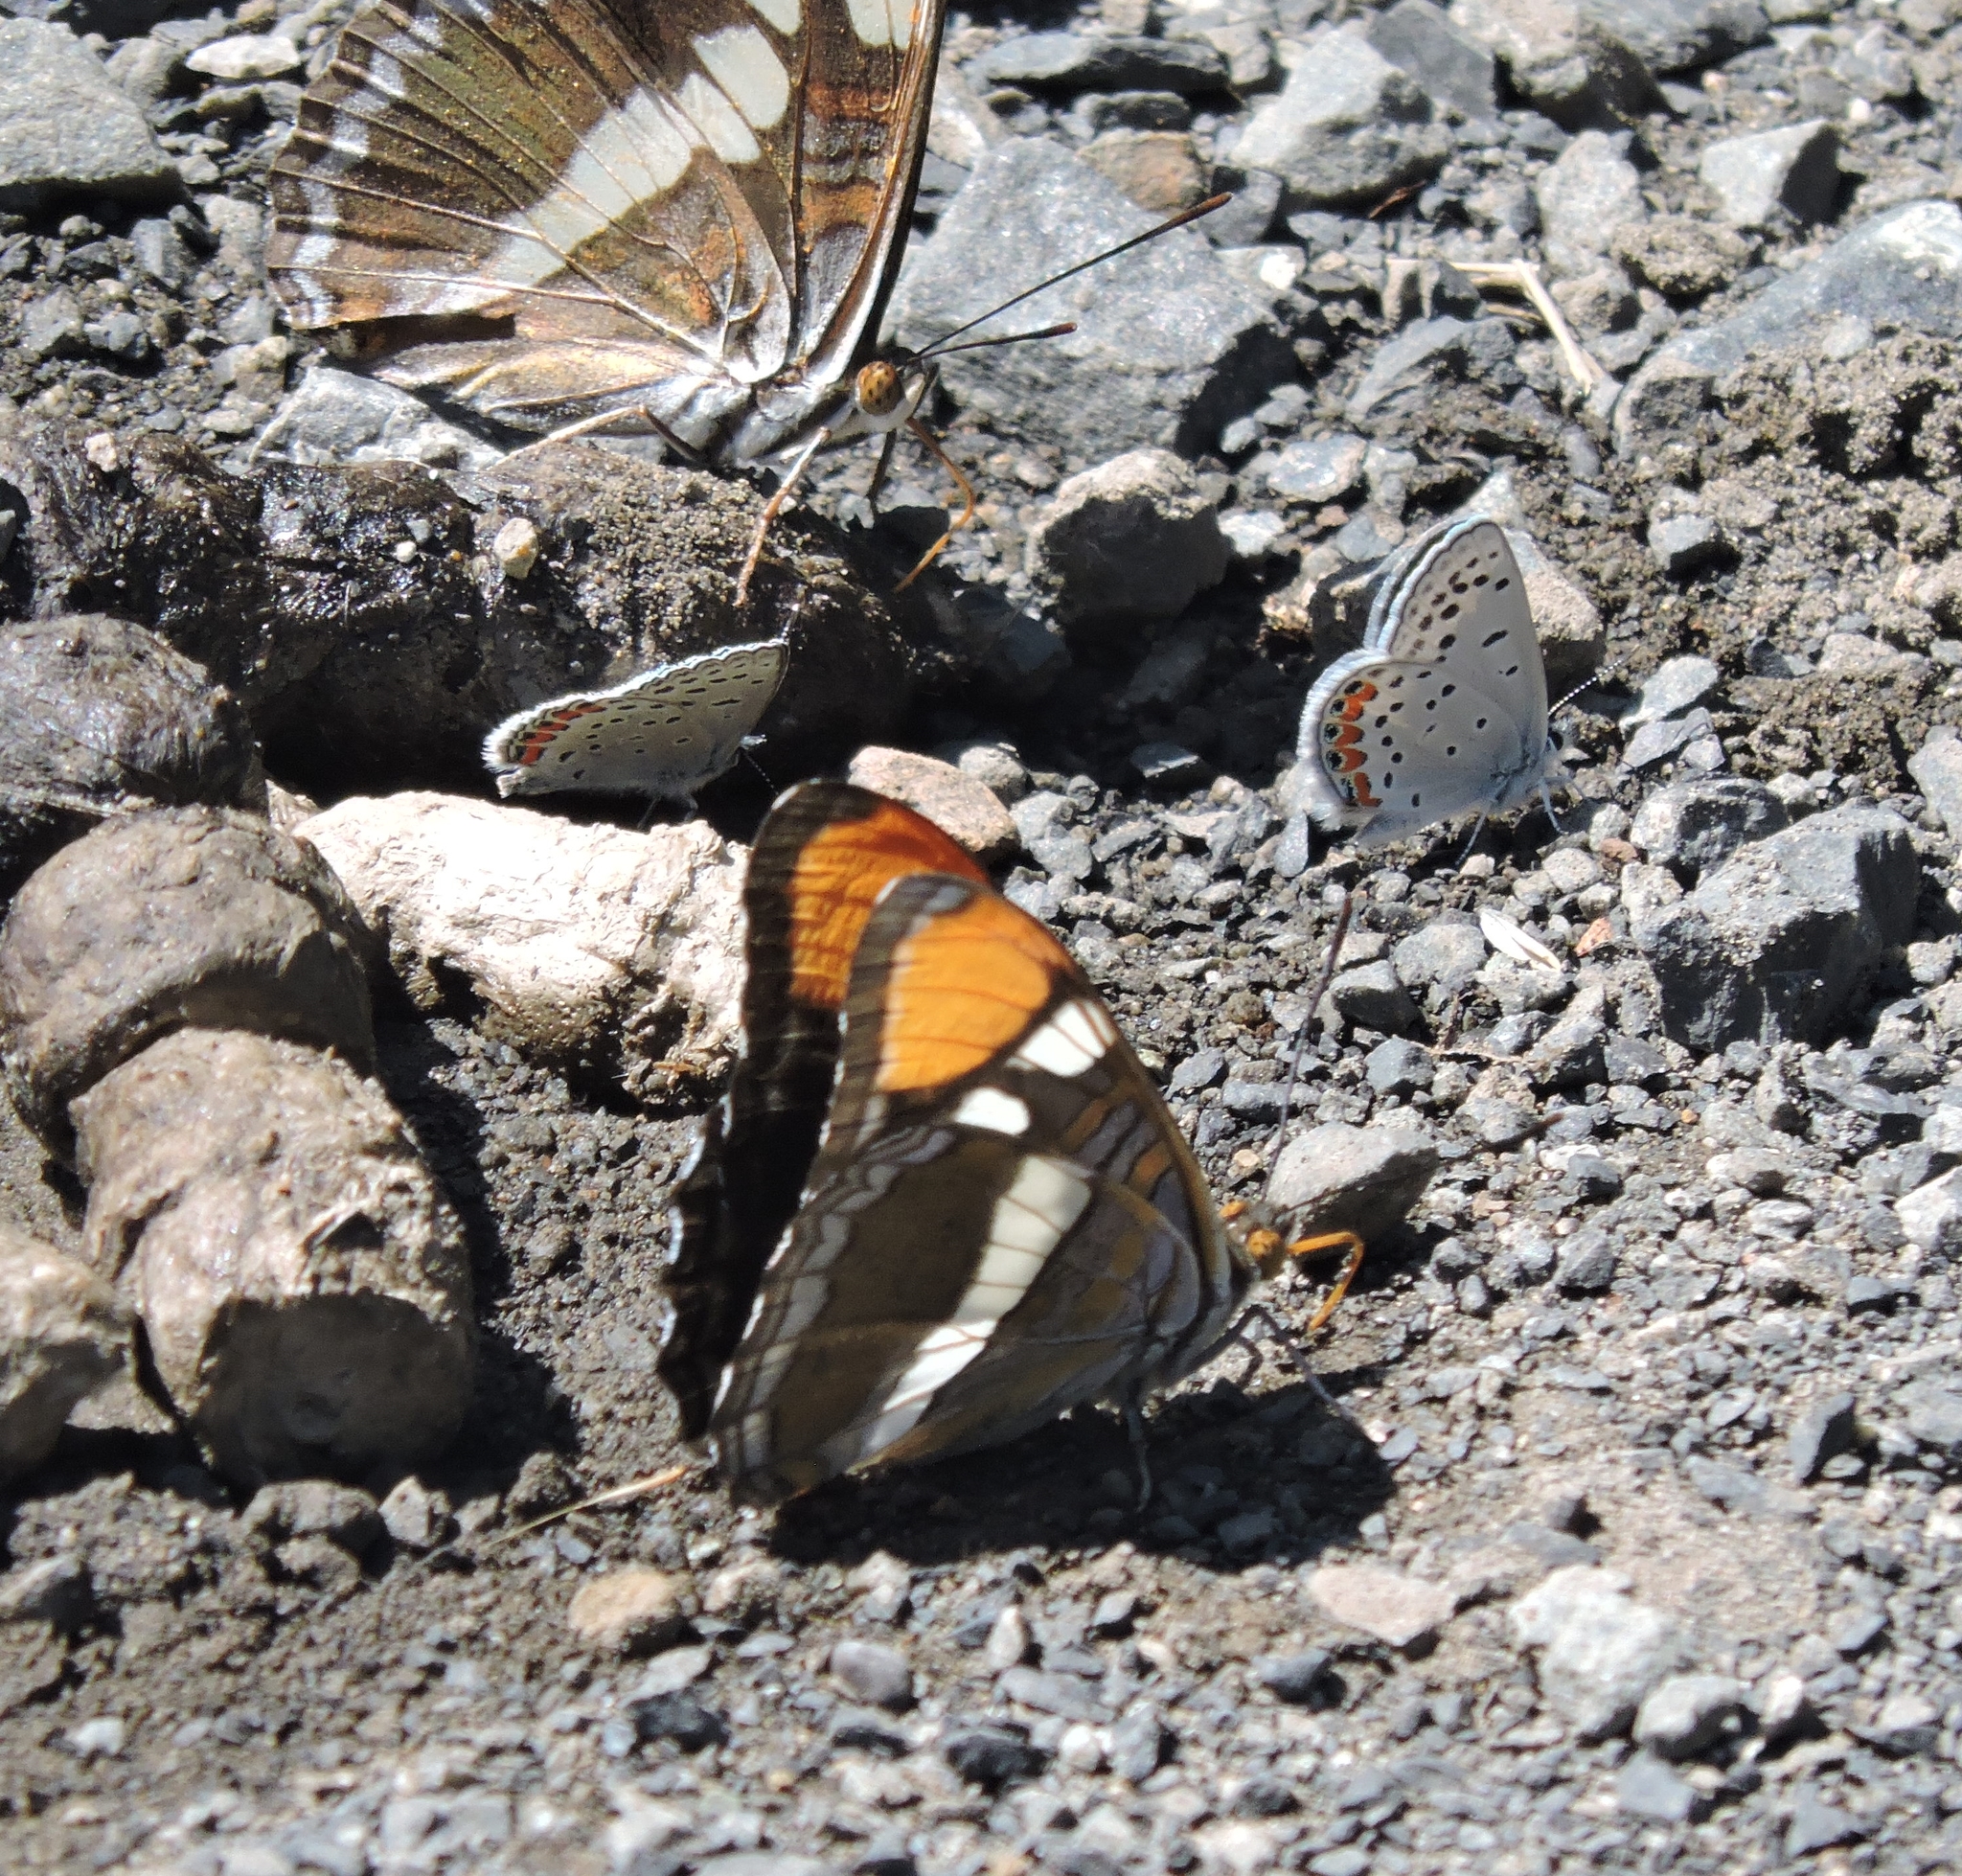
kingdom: Animalia
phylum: Arthropoda
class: Insecta
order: Lepidoptera
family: Nymphalidae
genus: Limenitis
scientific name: Limenitis bredowii
